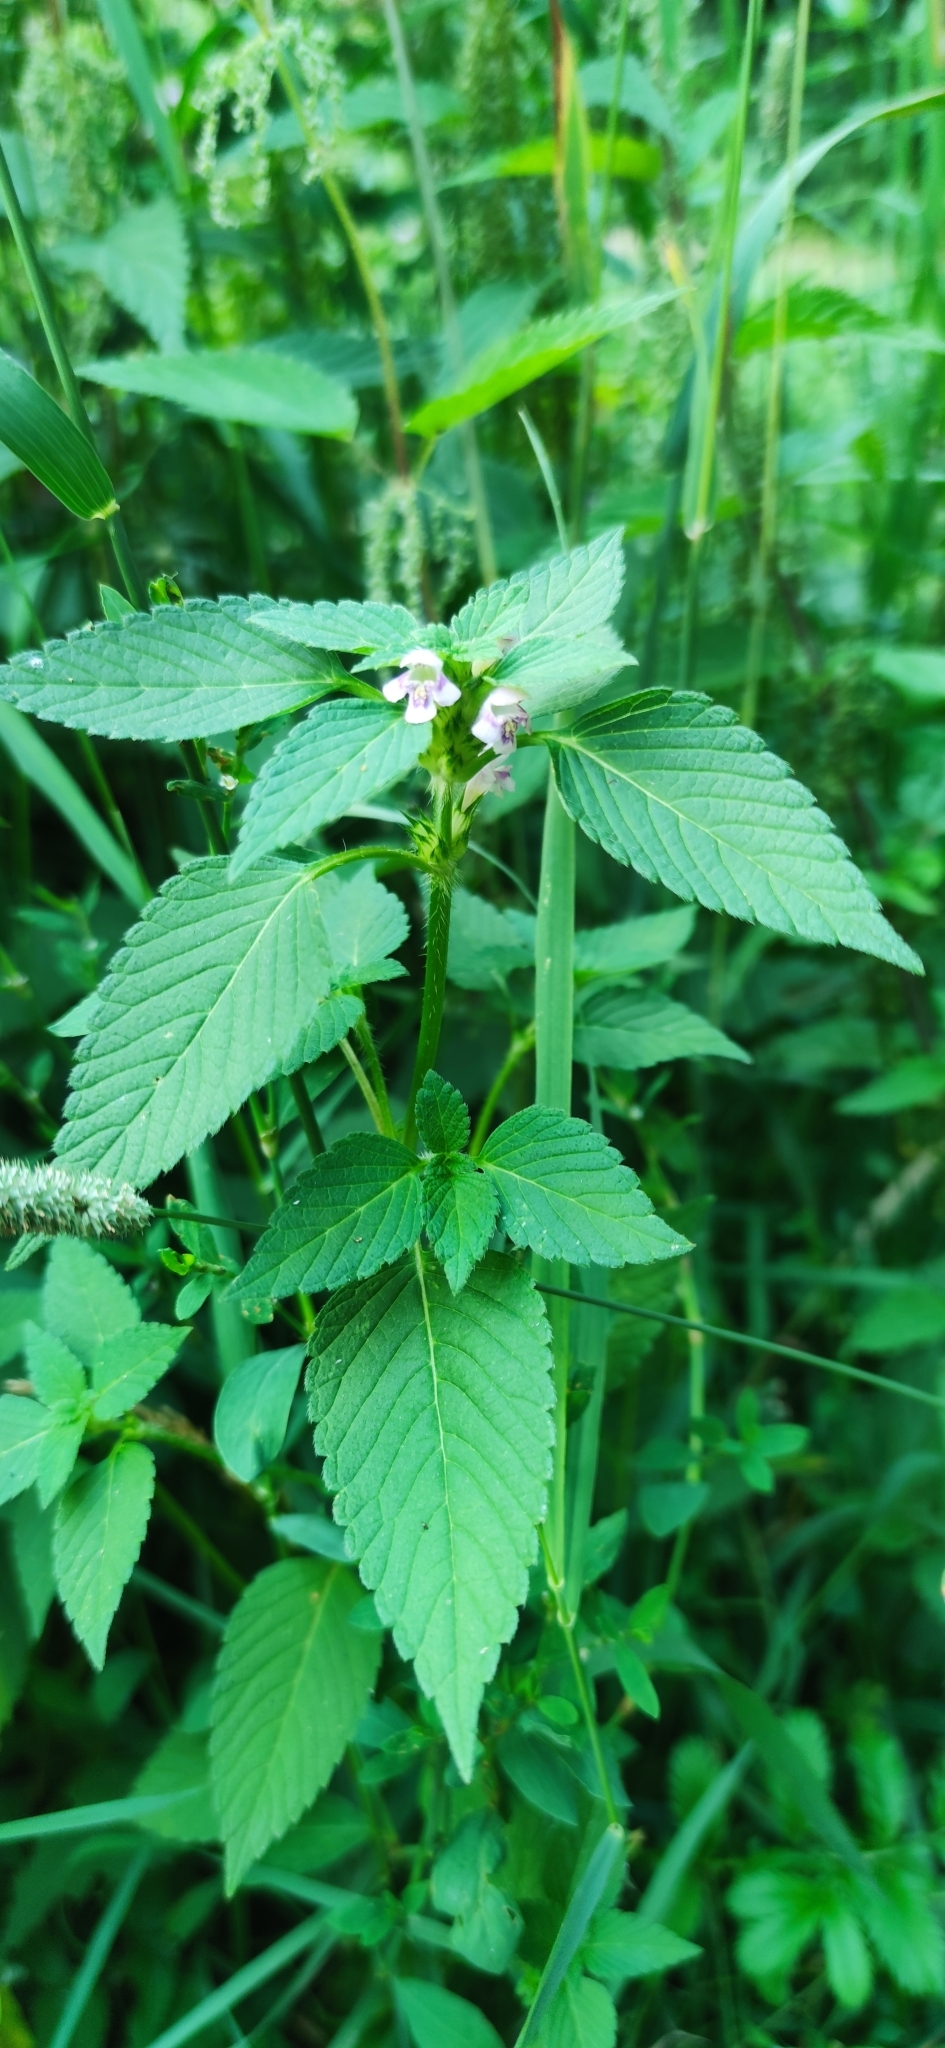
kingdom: Plantae
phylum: Tracheophyta
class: Magnoliopsida
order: Lamiales
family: Lamiaceae
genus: Galeopsis
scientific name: Galeopsis tetrahit
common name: Common hemp-nettle
